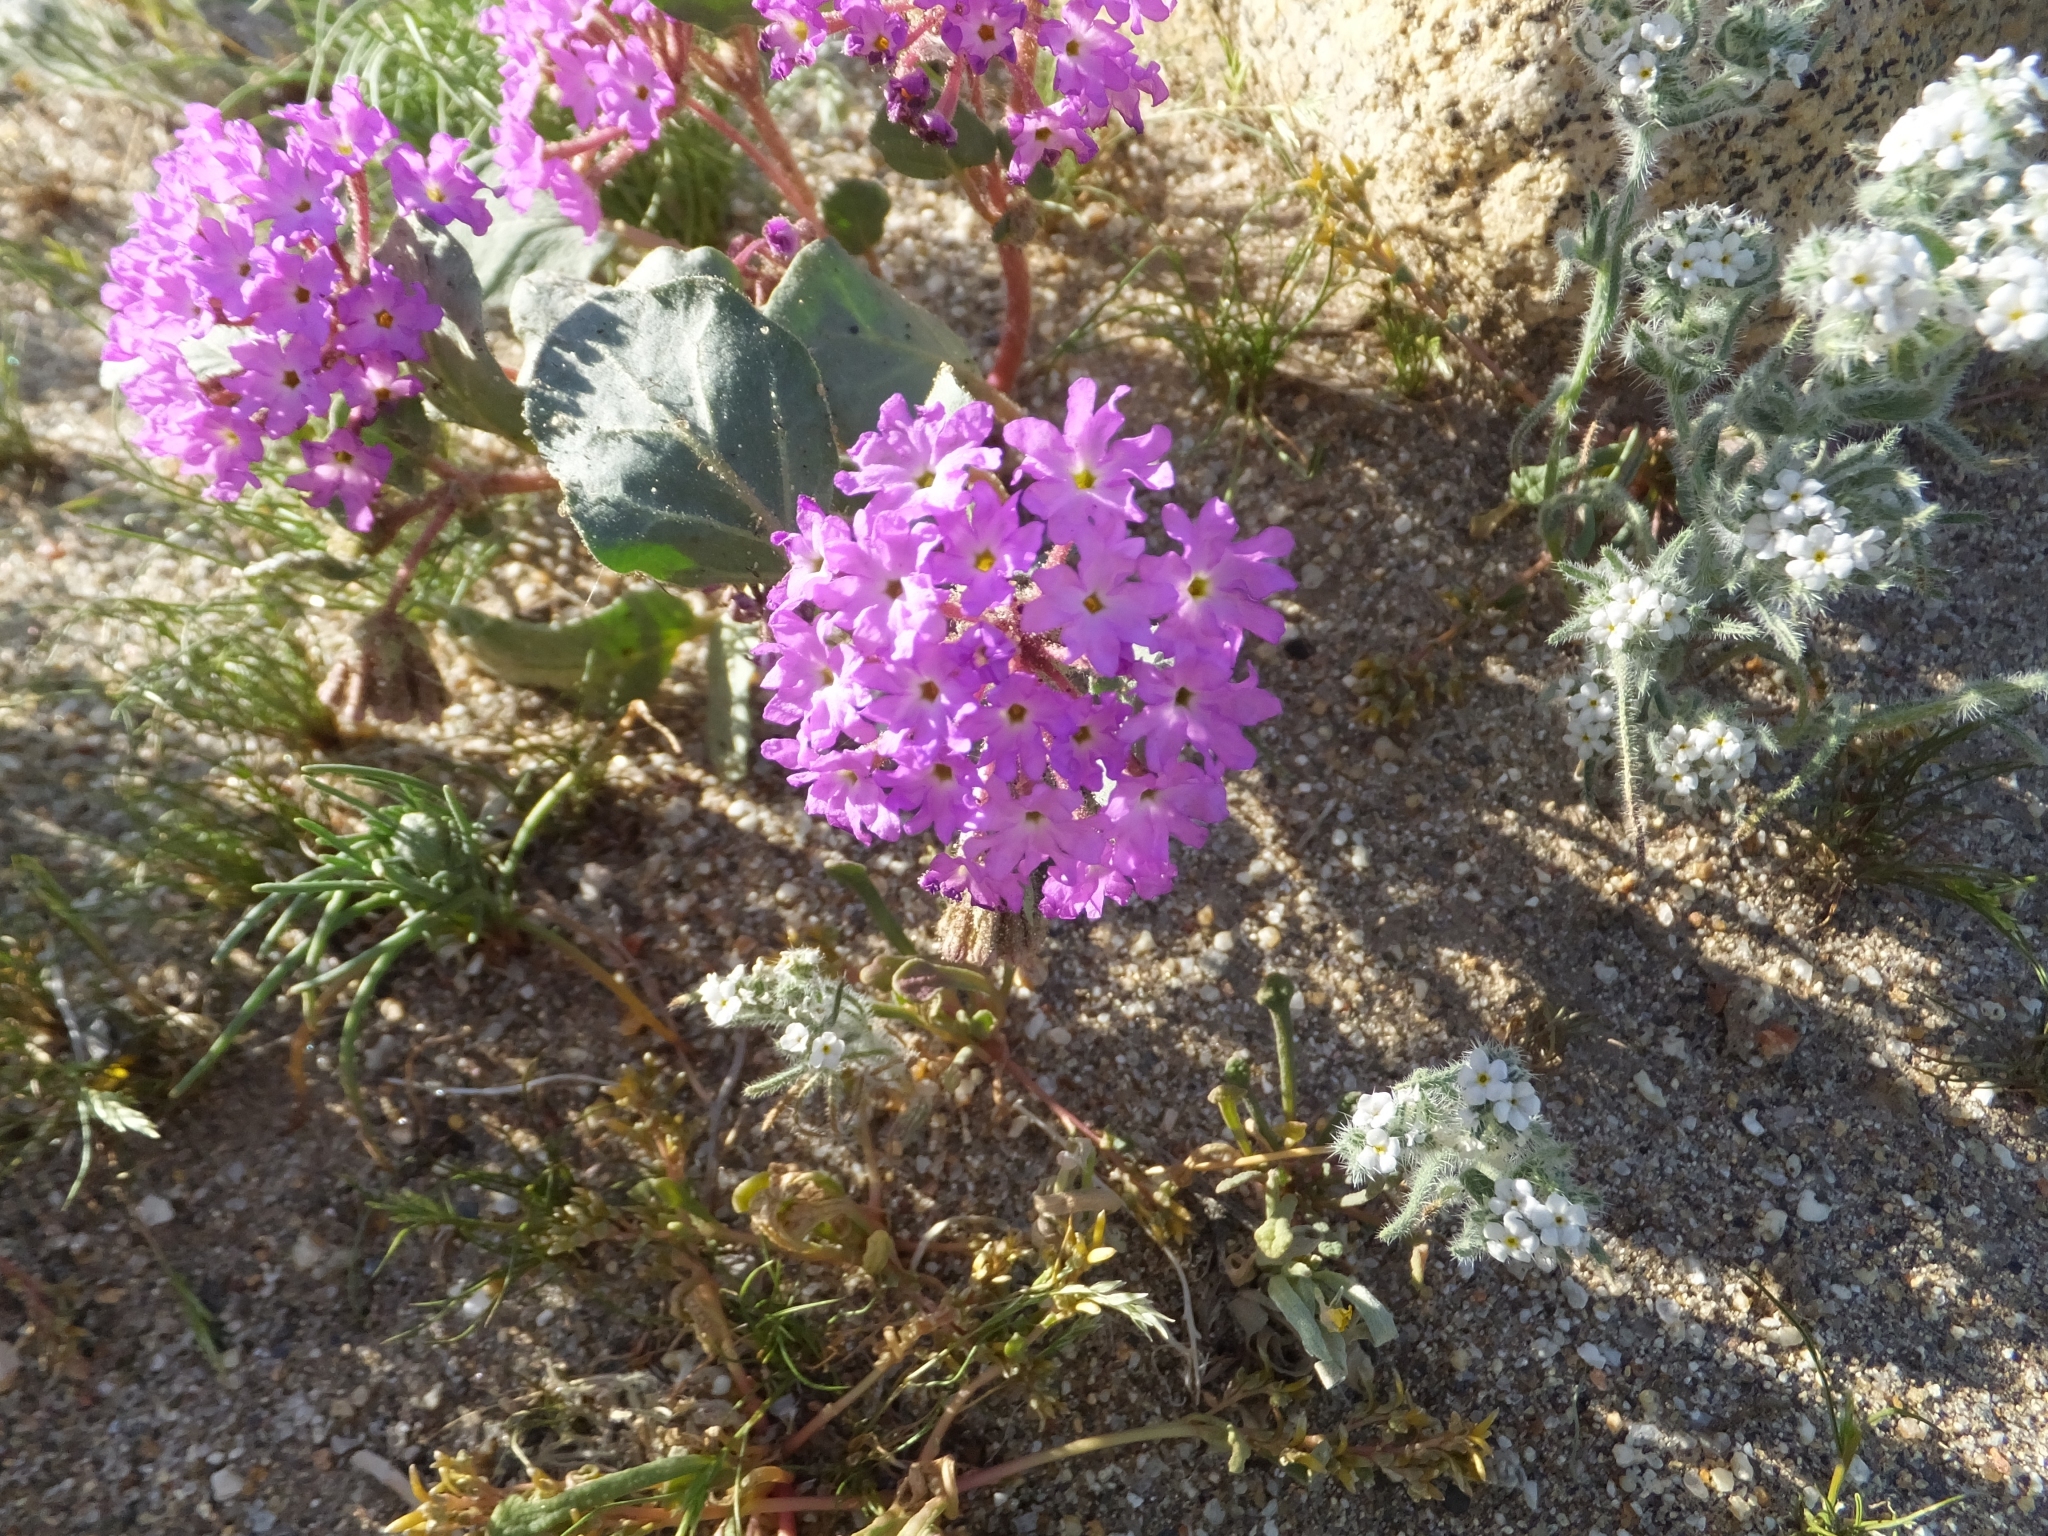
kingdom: Plantae
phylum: Tracheophyta
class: Magnoliopsida
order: Caryophyllales
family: Nyctaginaceae
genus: Abronia
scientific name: Abronia villosa
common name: Desert sand-verbena
